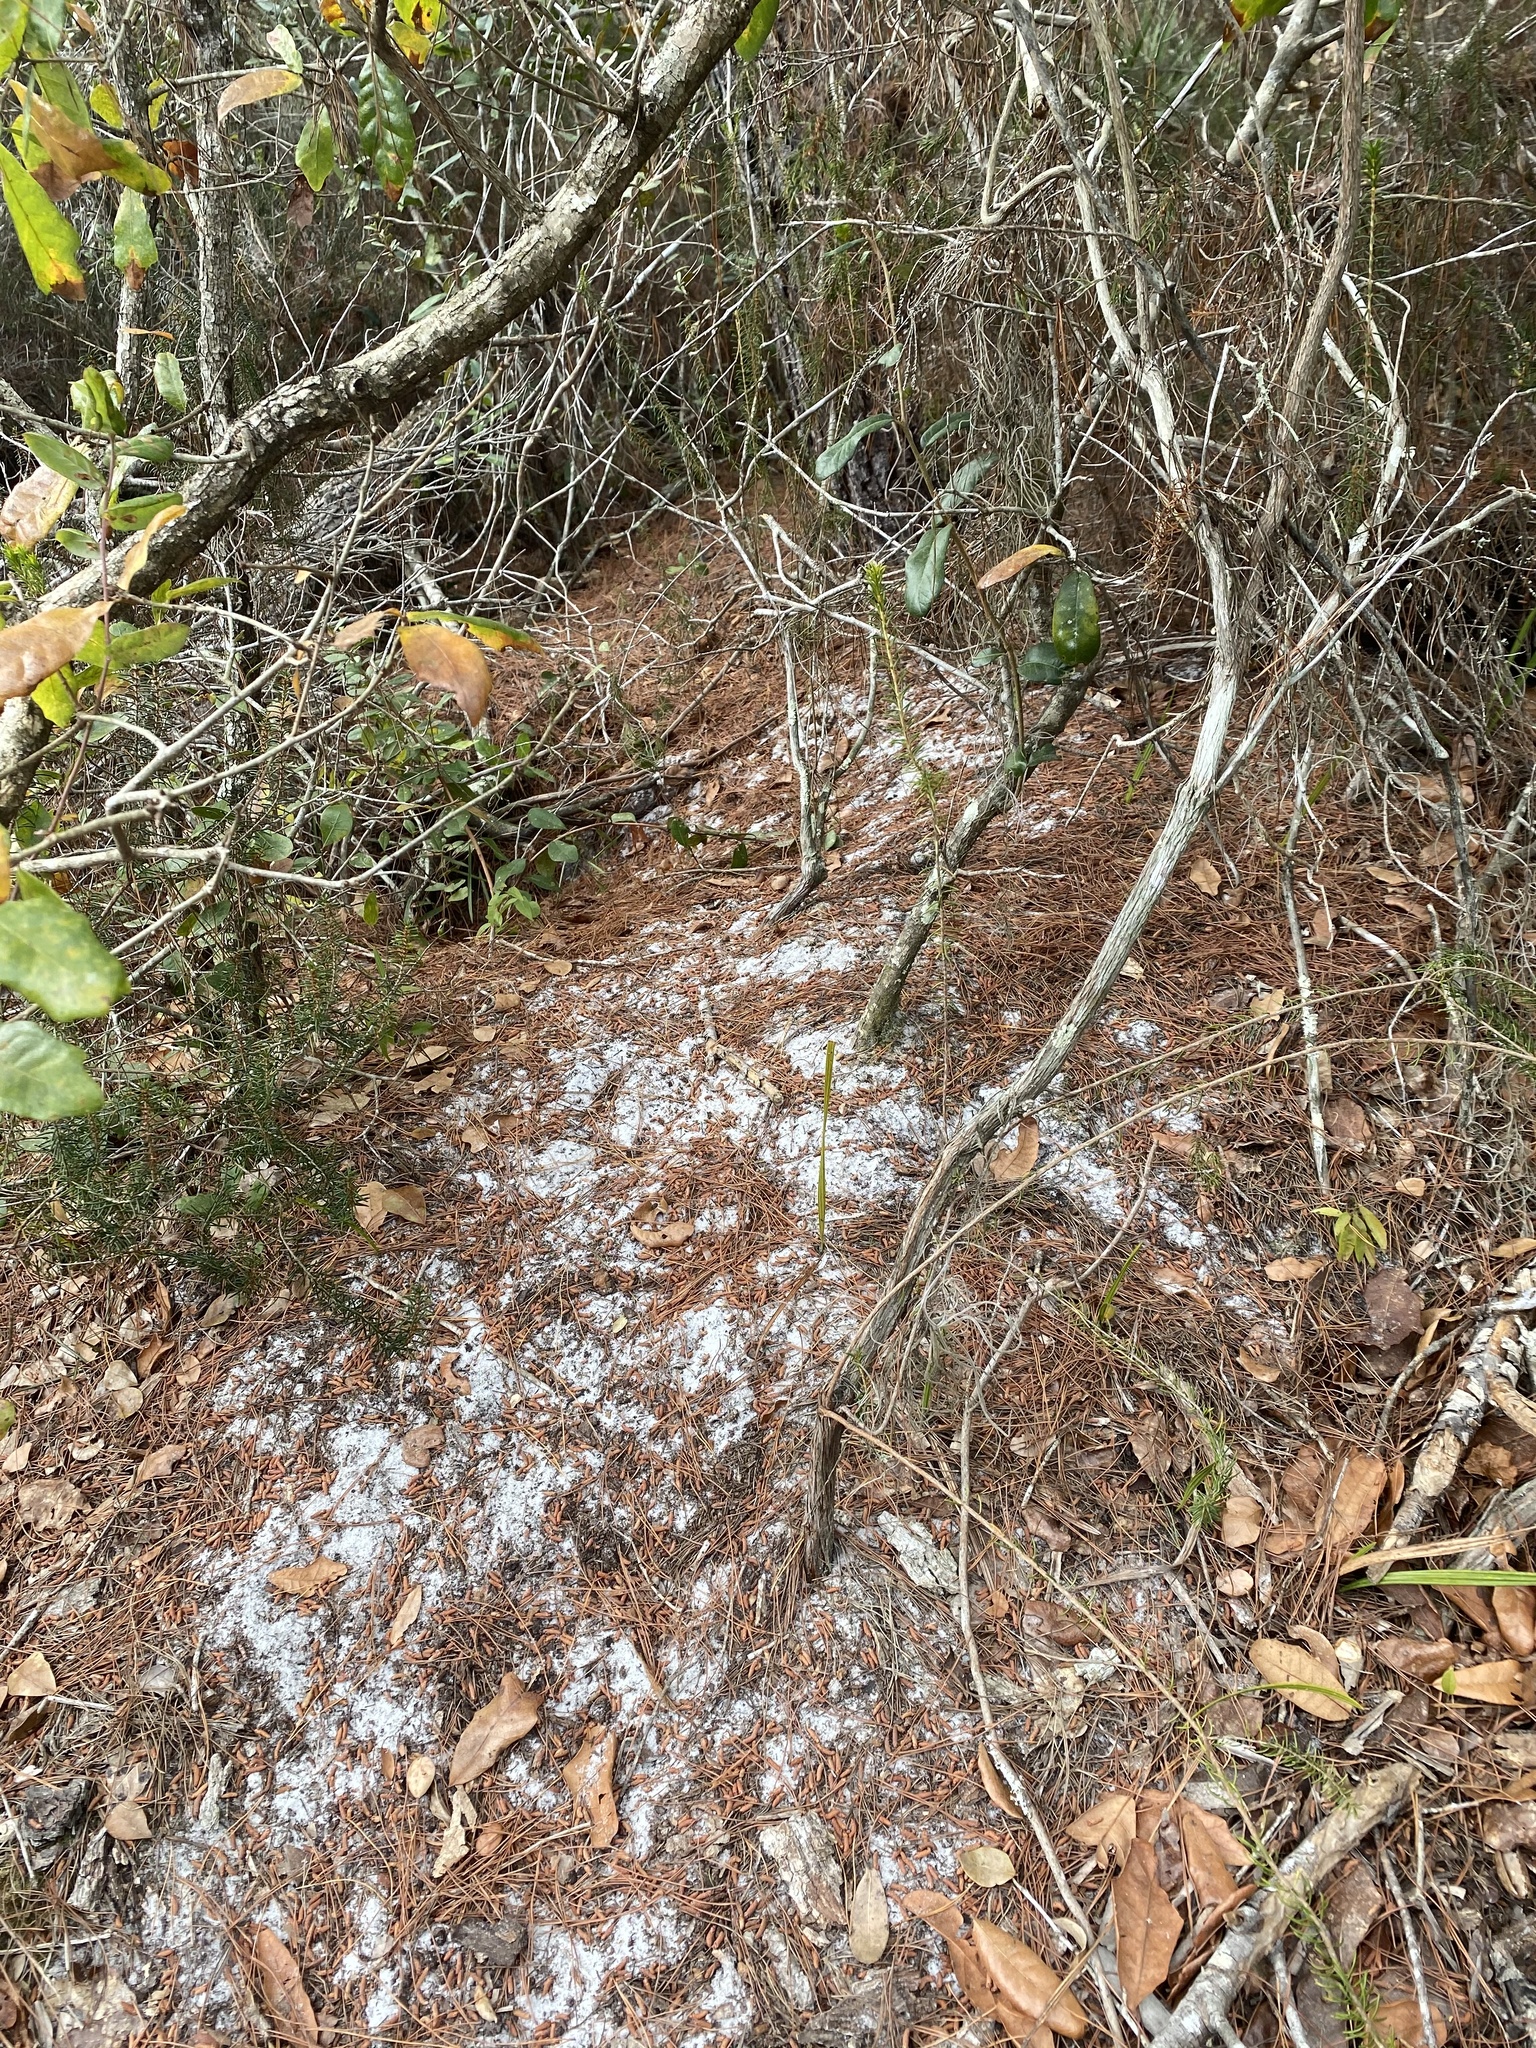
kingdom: Animalia
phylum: Chordata
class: Testudines
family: Testudinidae
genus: Gopherus
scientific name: Gopherus polyphemus
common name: Florida gopher tortoise
